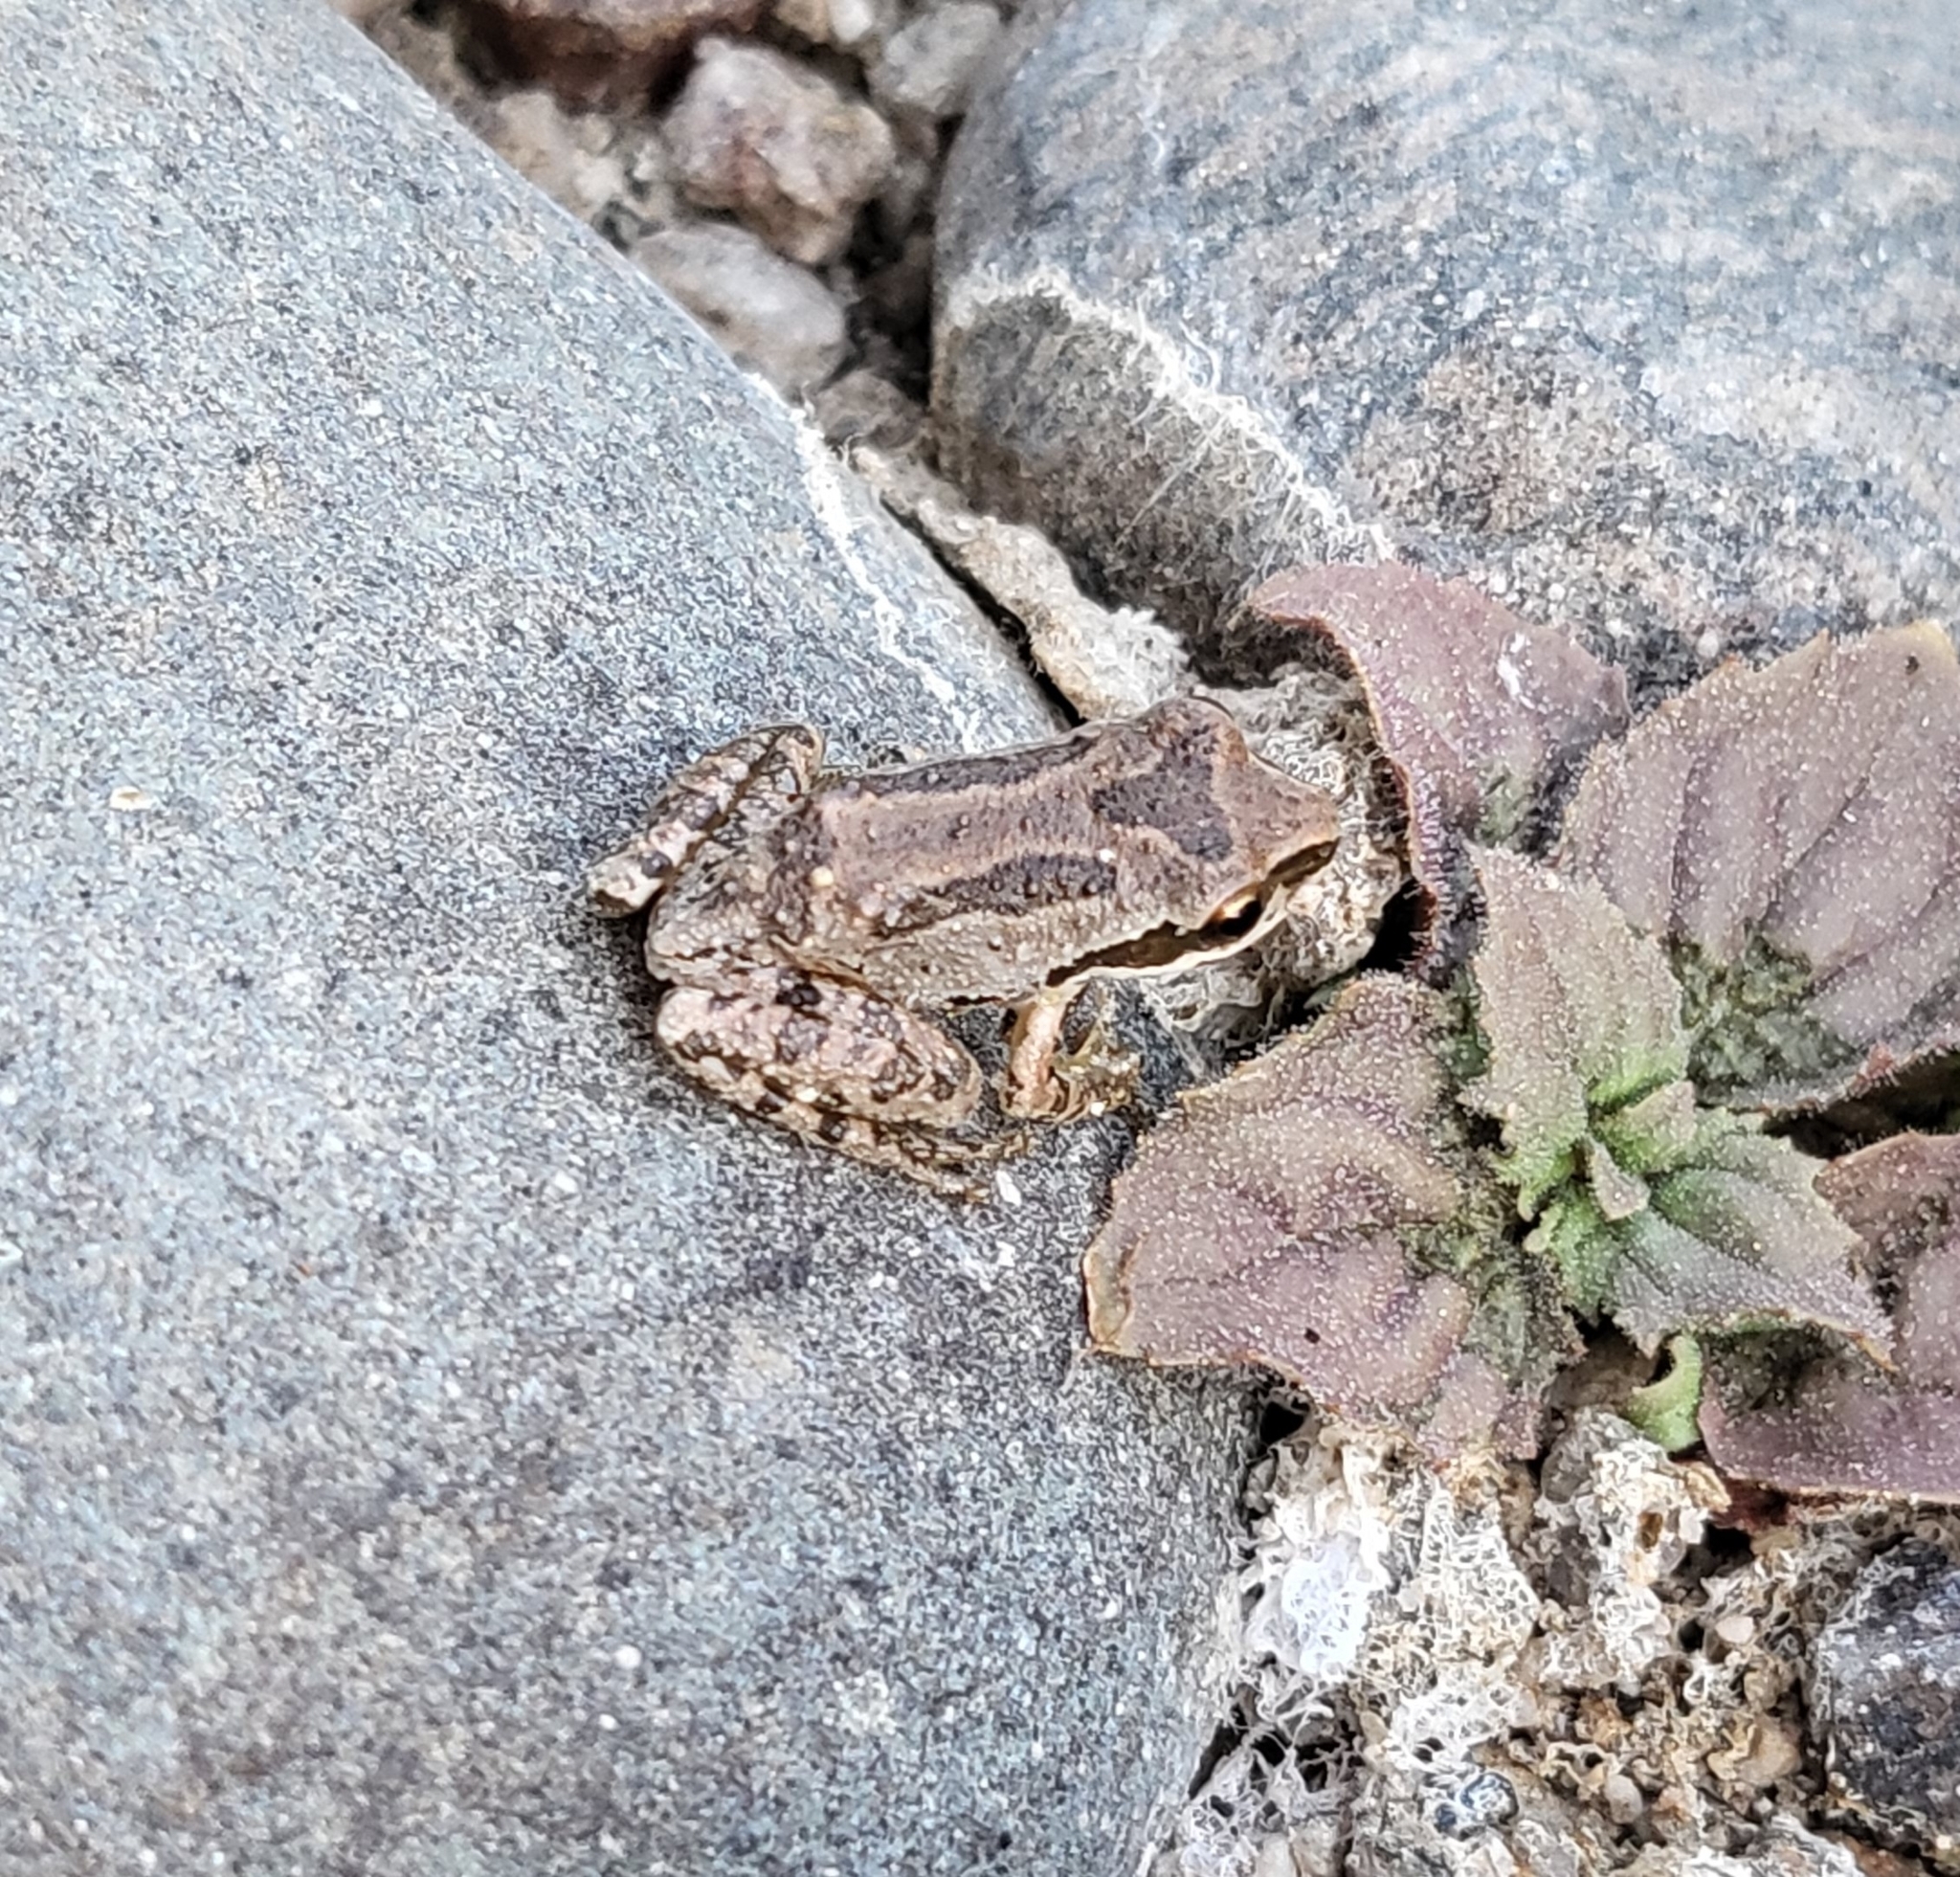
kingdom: Animalia
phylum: Chordata
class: Amphibia
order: Anura
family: Hylidae
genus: Pseudacris
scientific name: Pseudacris regilla
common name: Pacific chorus frog
